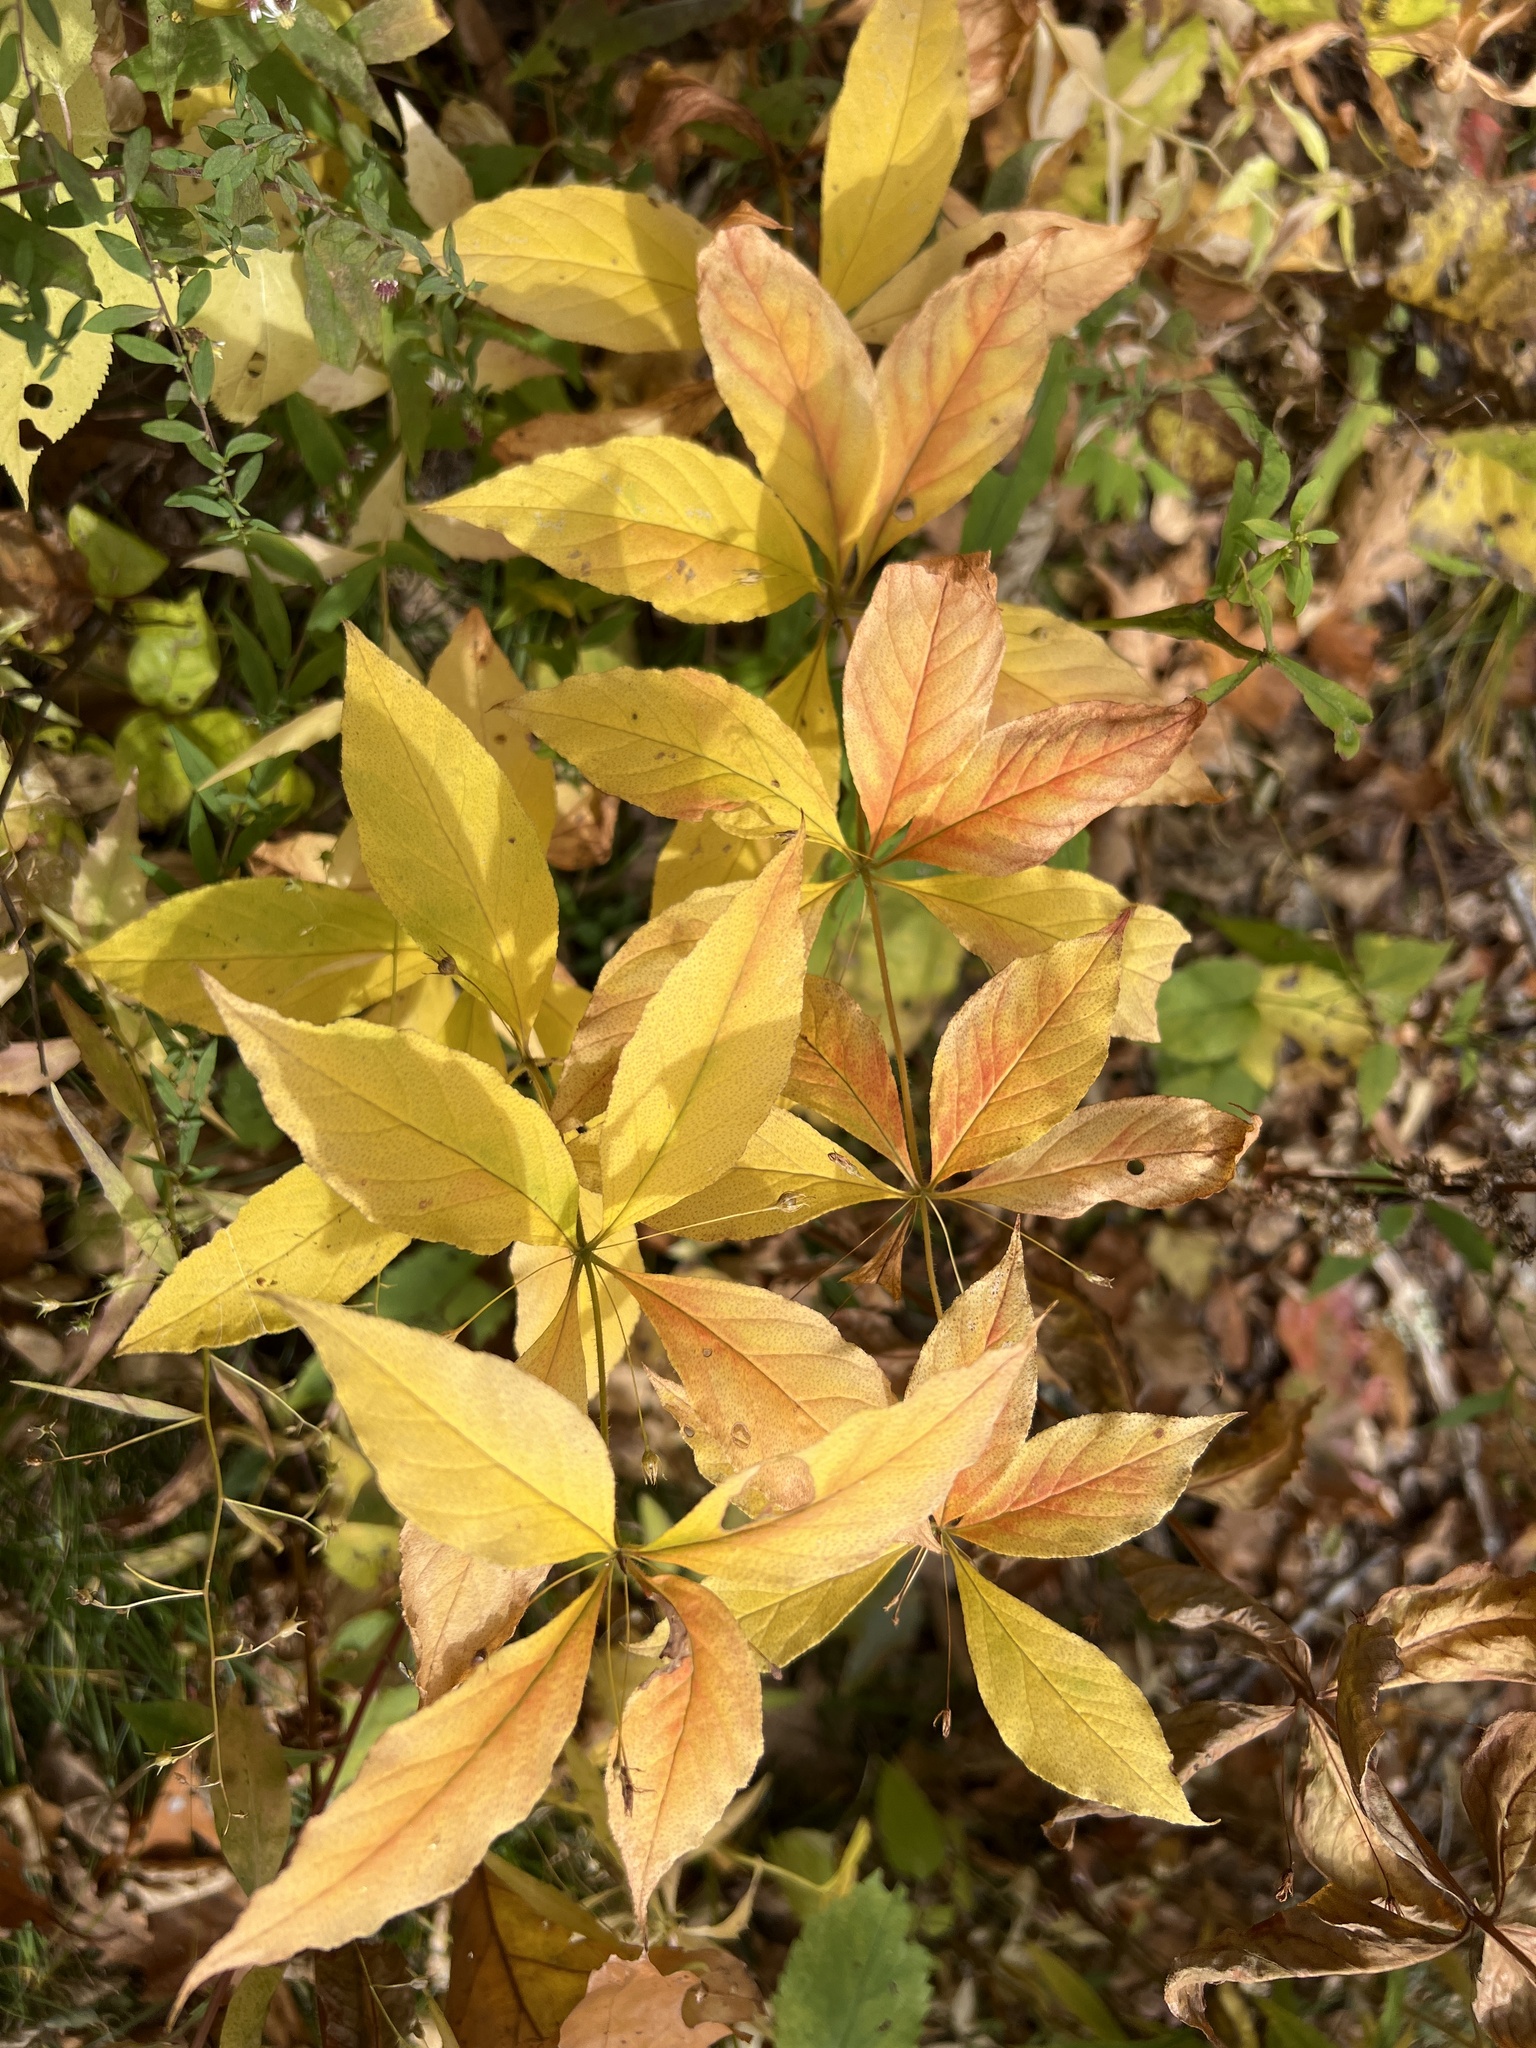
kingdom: Plantae
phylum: Tracheophyta
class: Magnoliopsida
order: Ericales
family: Primulaceae
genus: Lysimachia
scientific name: Lysimachia quadrifolia
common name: Whorled loosestrife
